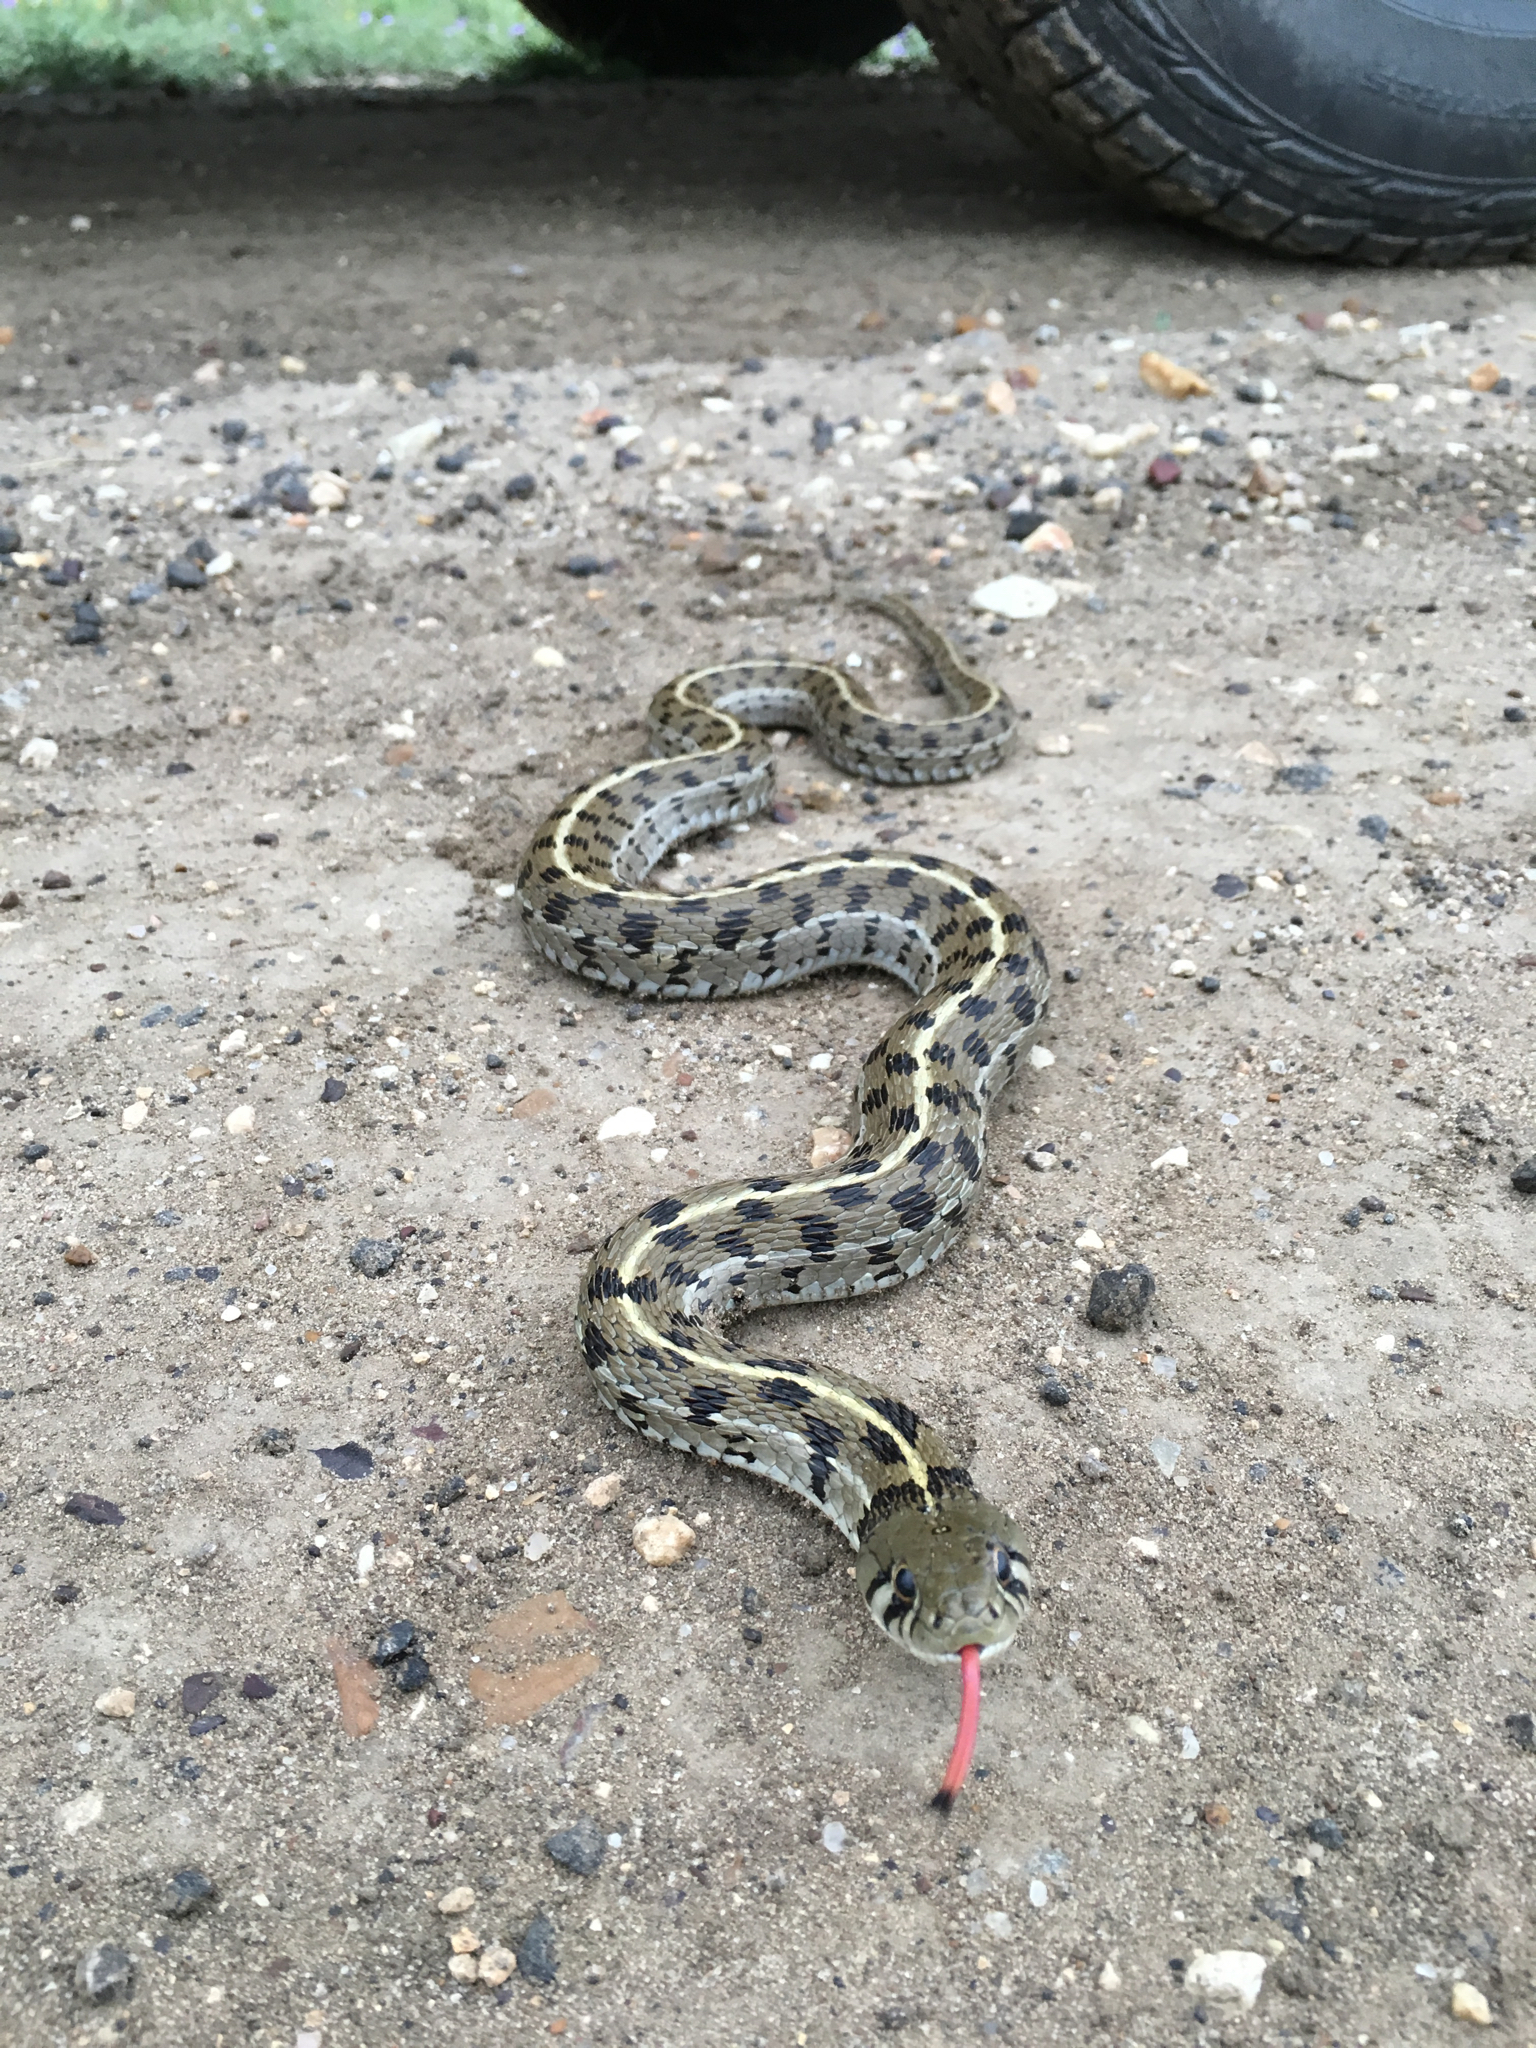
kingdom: Animalia
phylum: Chordata
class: Squamata
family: Colubridae
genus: Thamnophis
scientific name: Thamnophis marcianus
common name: Checkered garter snake
